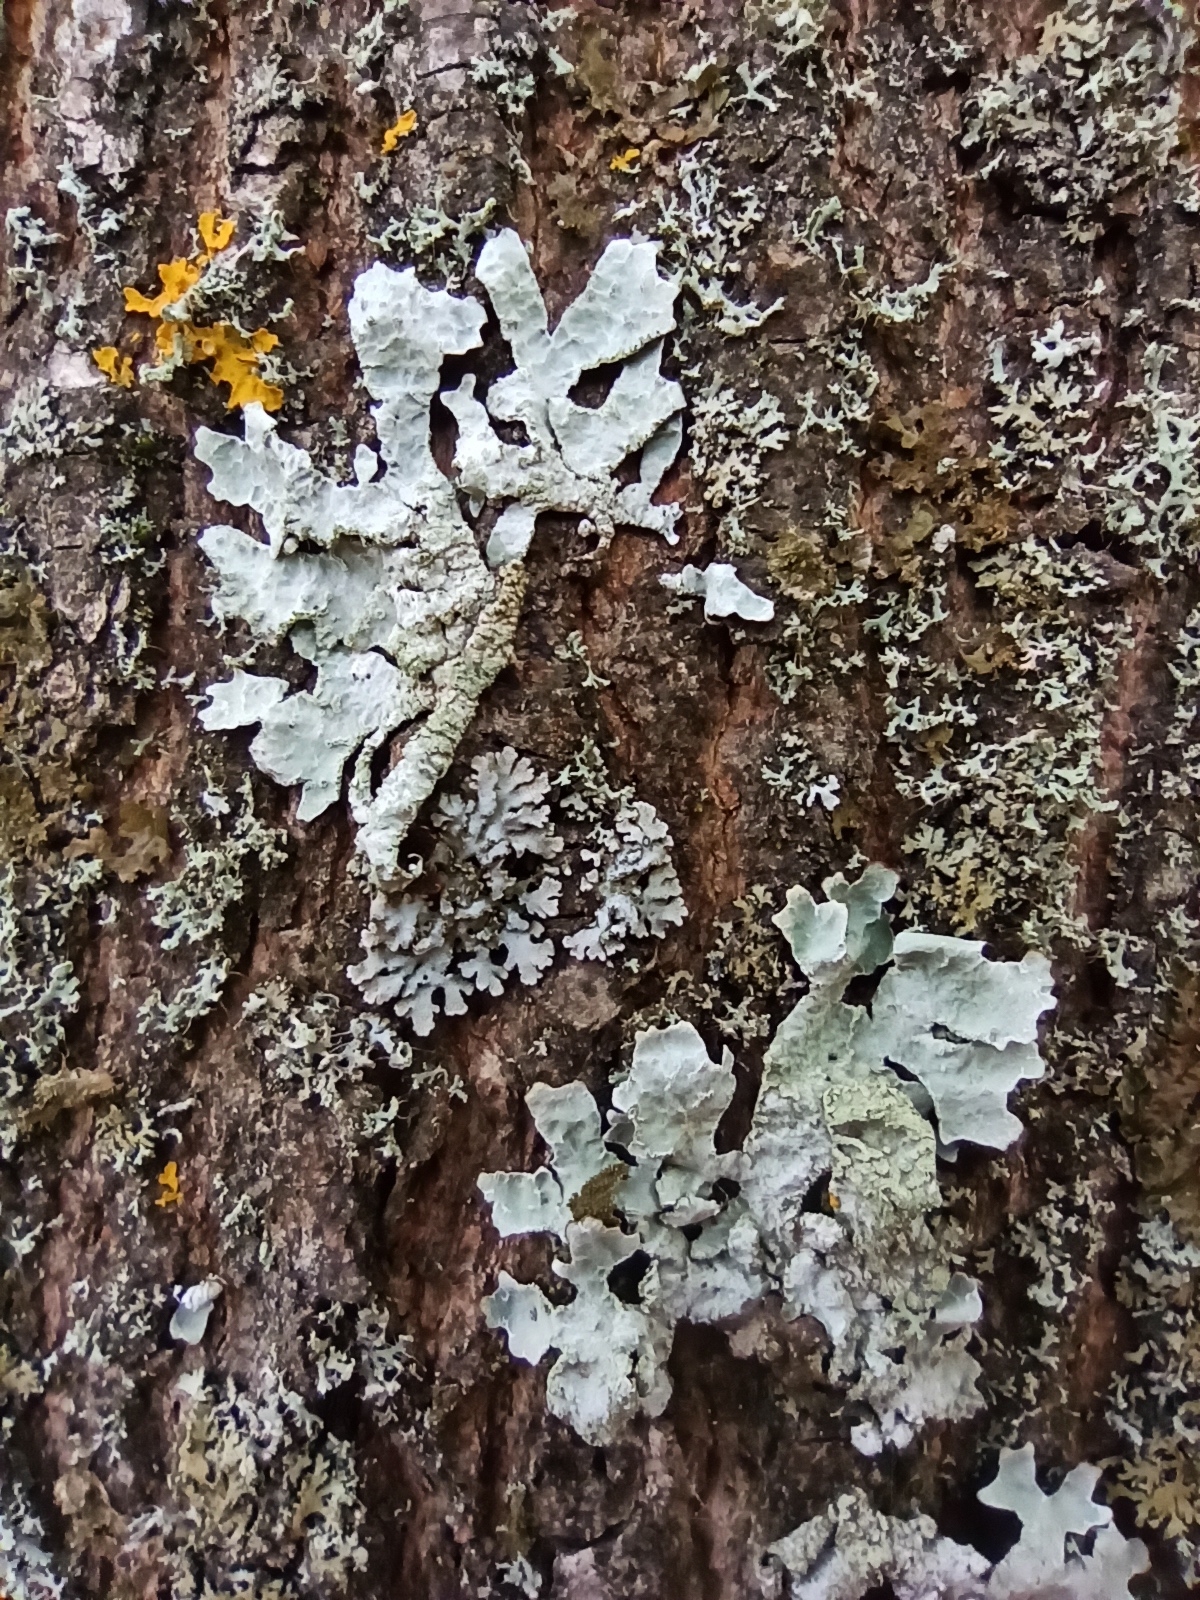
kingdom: Fungi
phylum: Ascomycota
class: Lecanoromycetes
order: Lecanorales
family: Parmeliaceae
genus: Parmelia
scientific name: Parmelia sulcata
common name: Netted shield lichen
